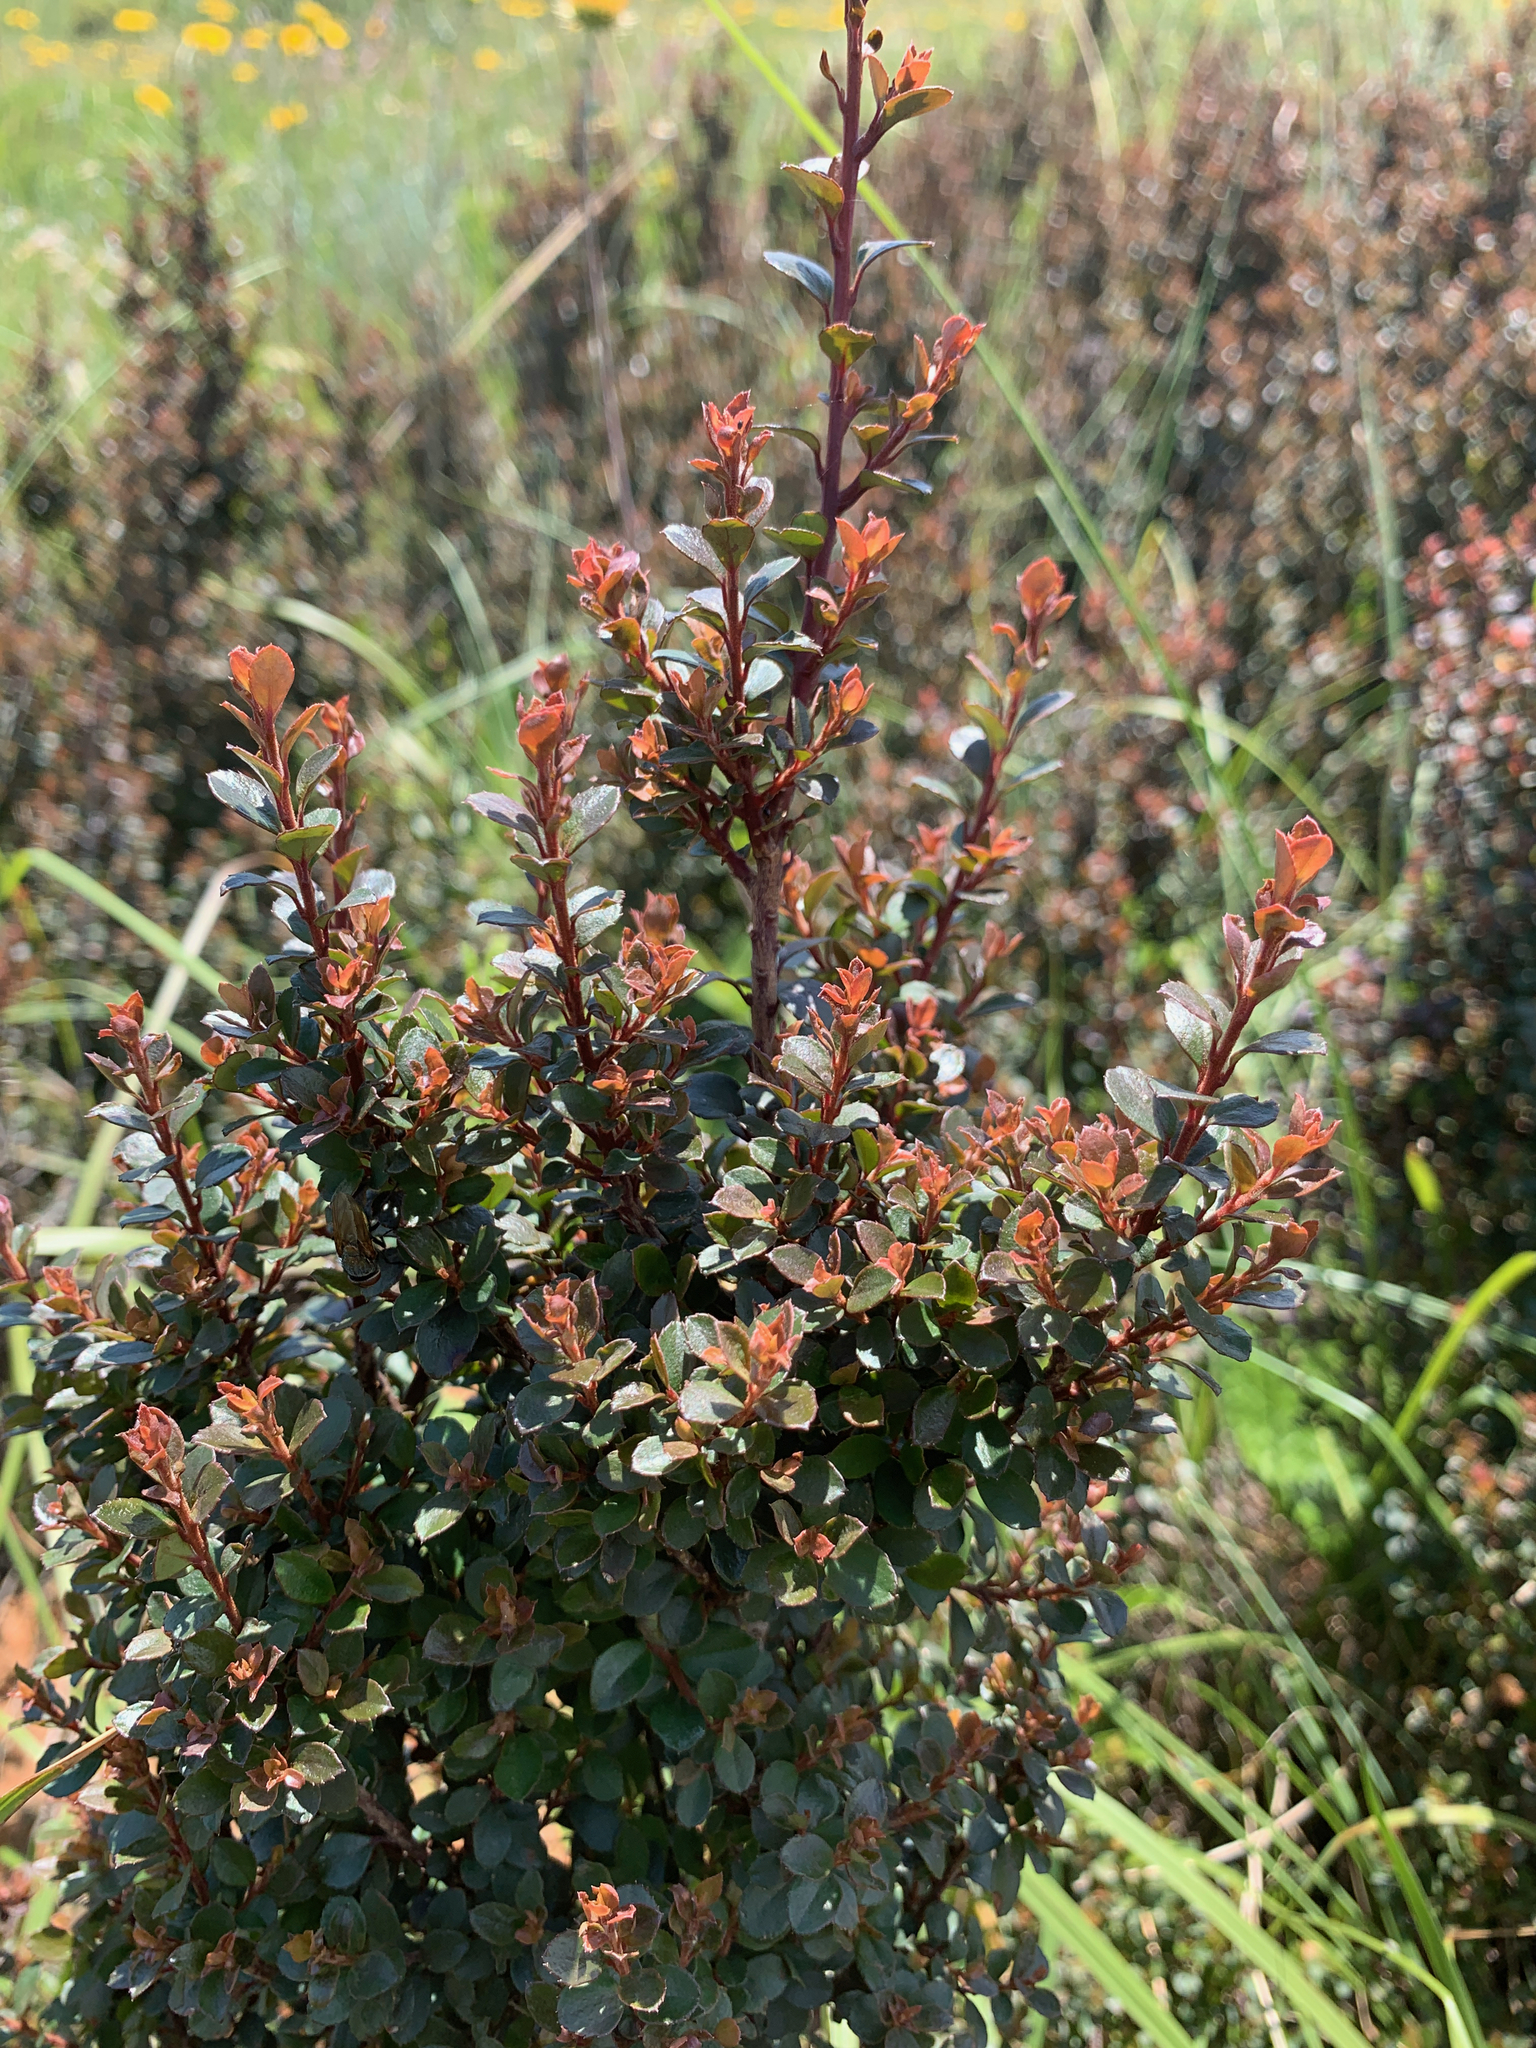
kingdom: Plantae
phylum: Tracheophyta
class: Magnoliopsida
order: Ericales
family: Primulaceae
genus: Myrsine
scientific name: Myrsine africana
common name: African-boxwood
